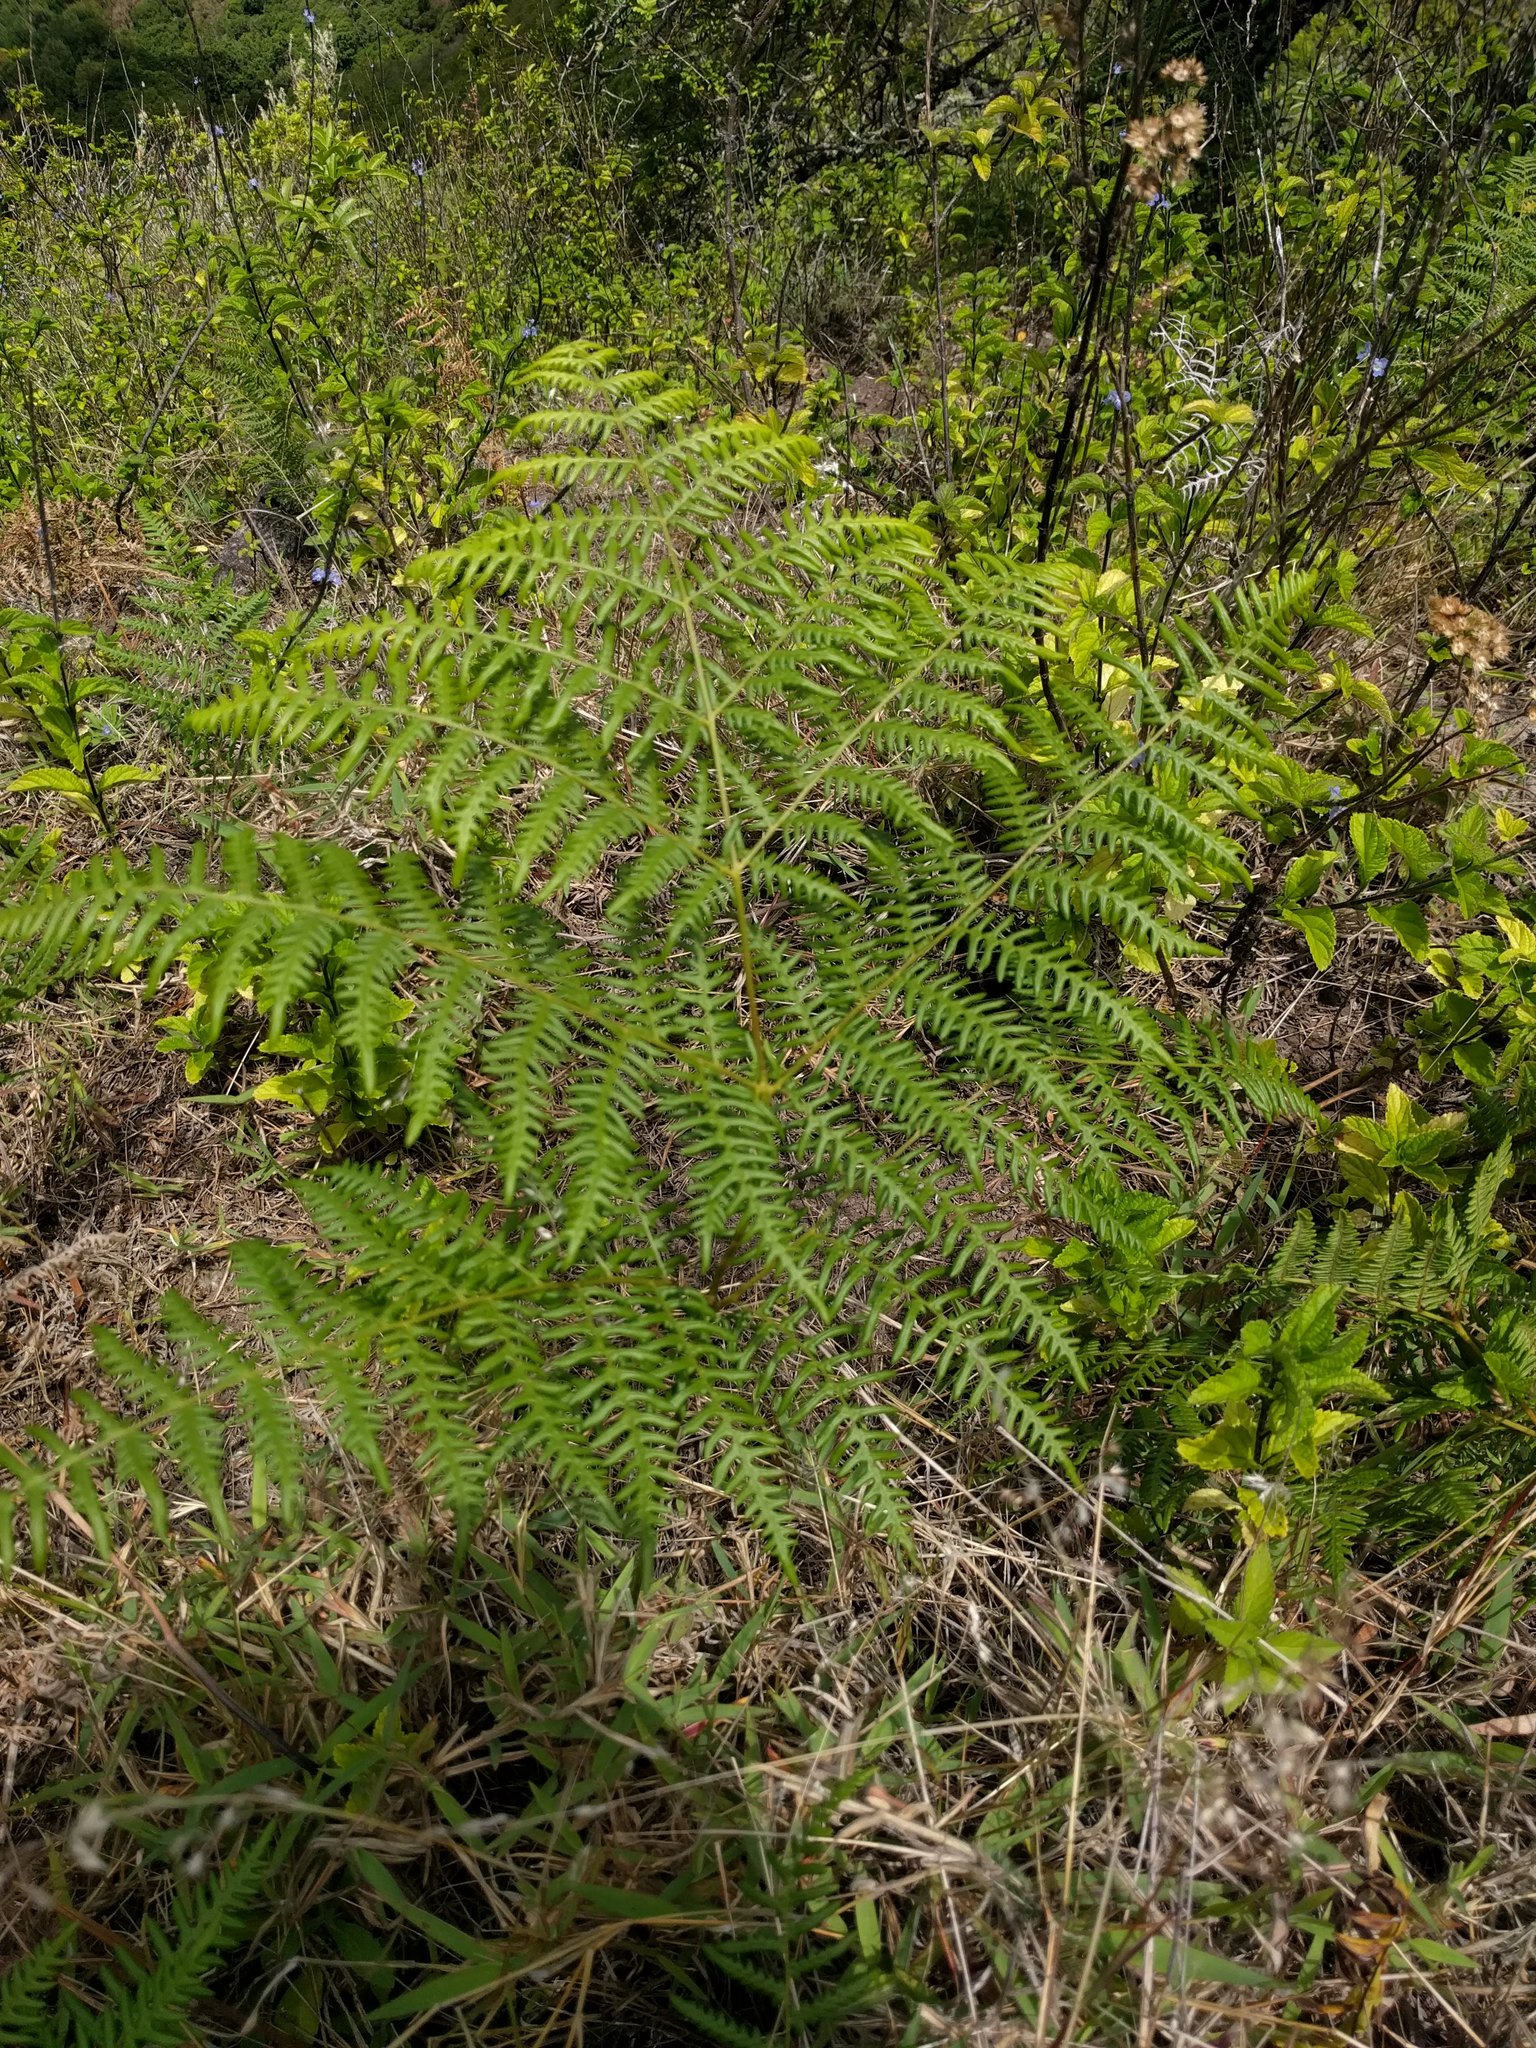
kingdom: Plantae
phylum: Tracheophyta
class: Polypodiopsida
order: Polypodiales
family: Dennstaedtiaceae
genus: Pteridium
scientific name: Pteridium aquilinum
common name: Bracken
